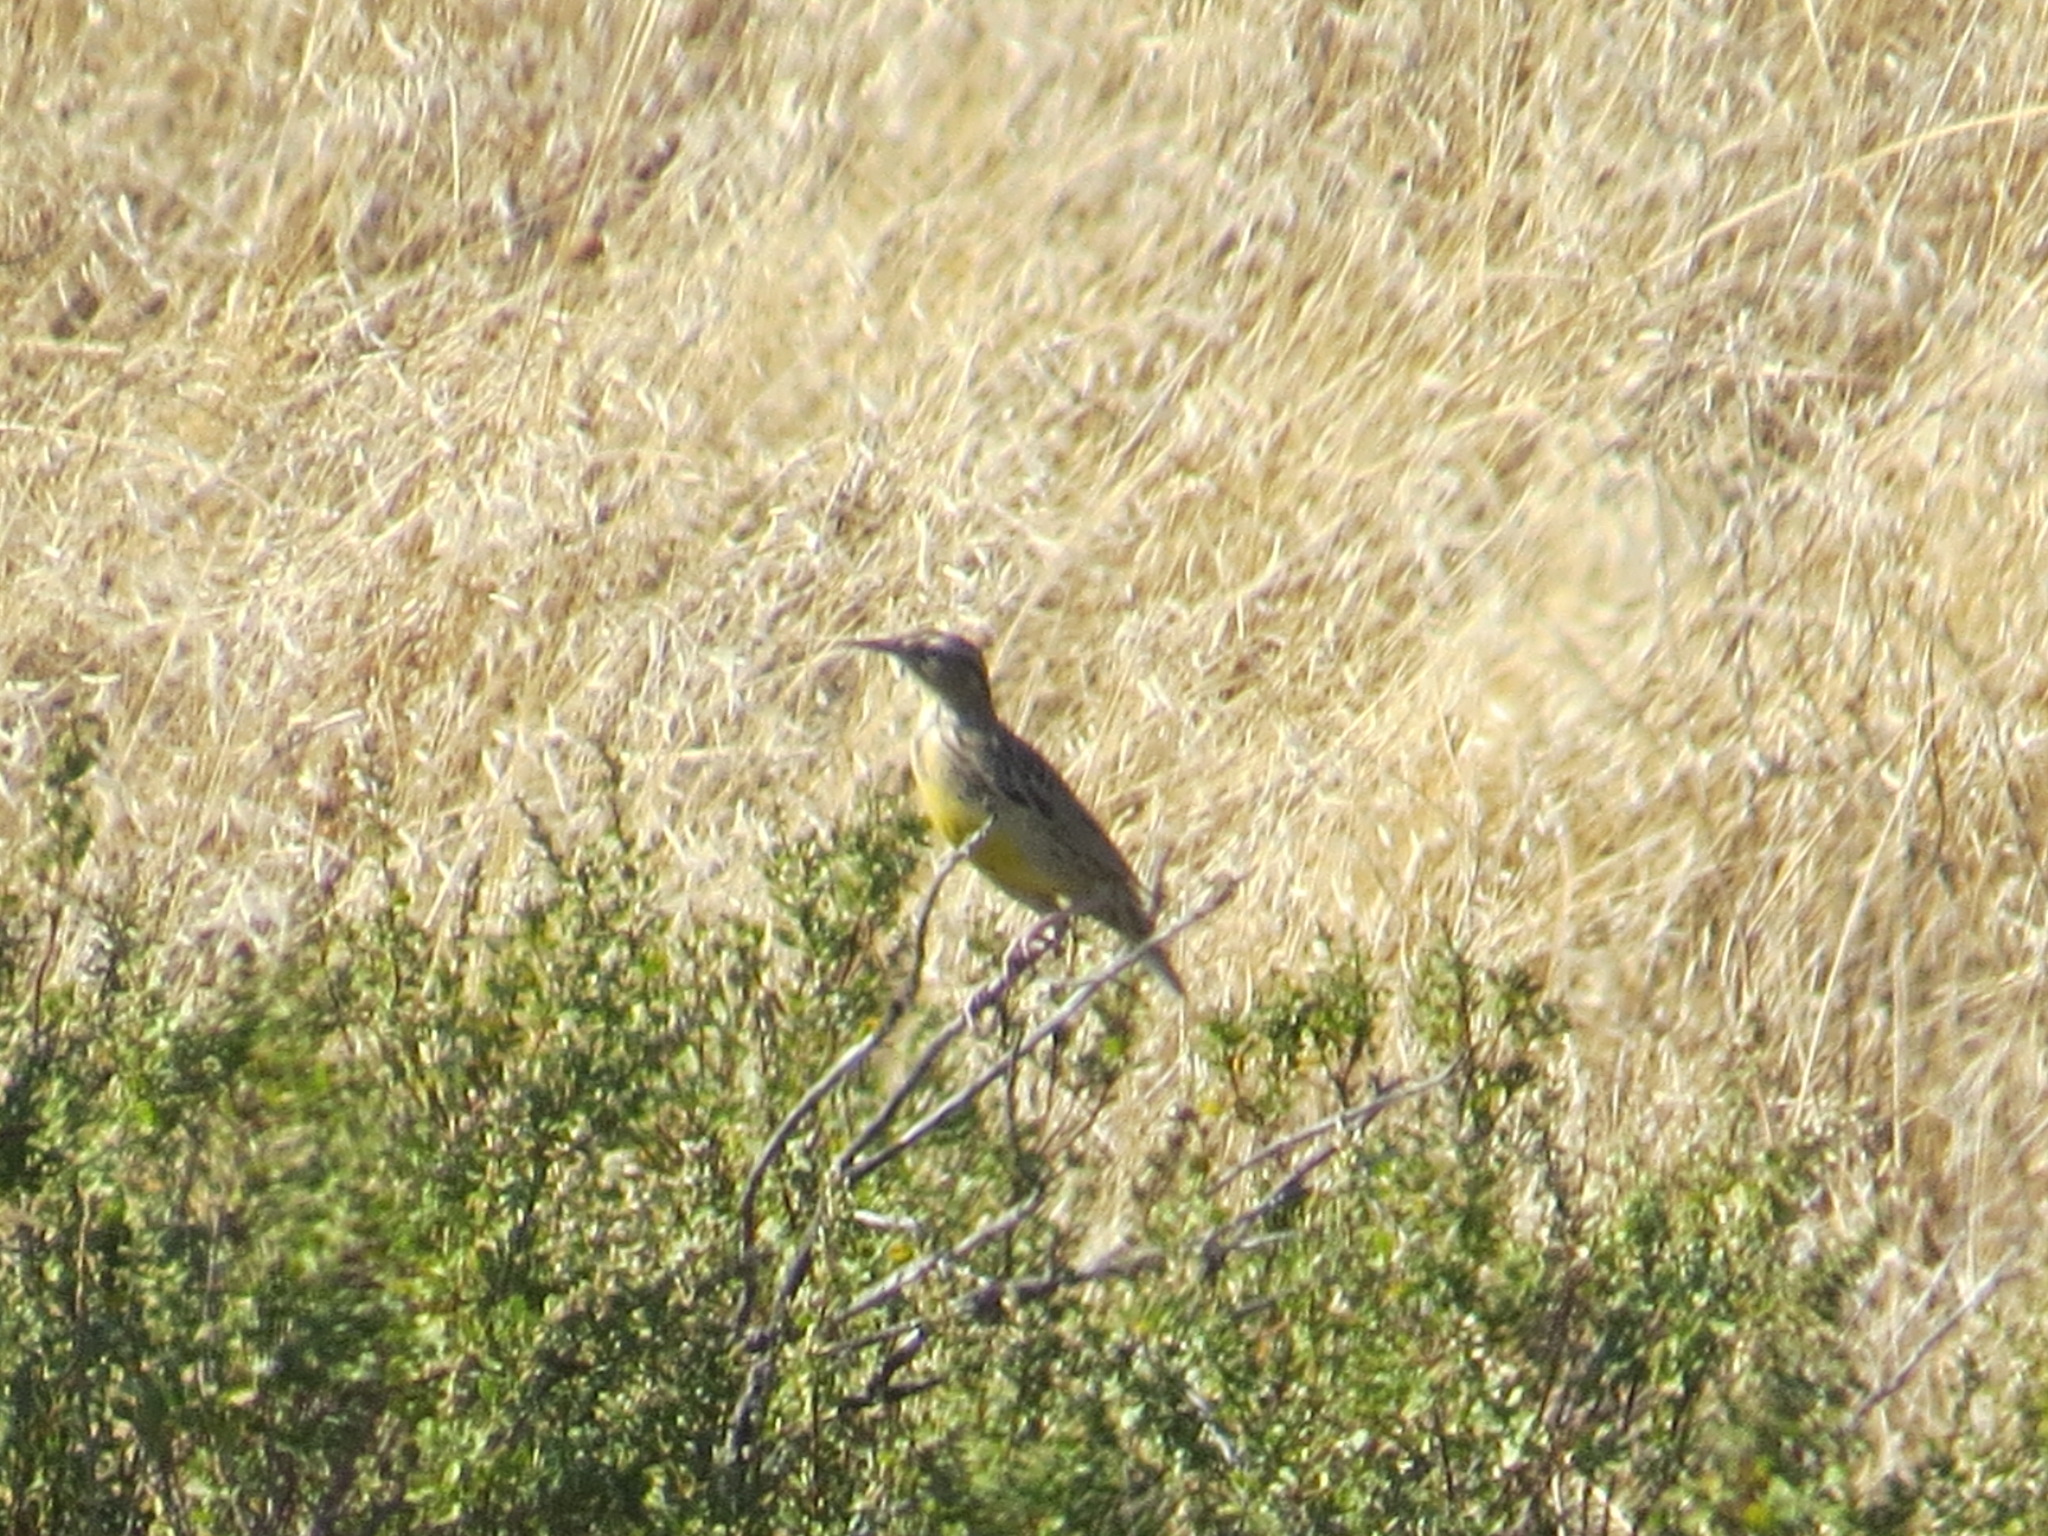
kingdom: Animalia
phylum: Chordata
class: Aves
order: Passeriformes
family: Icteridae
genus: Sturnella
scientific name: Sturnella neglecta
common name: Western meadowlark
